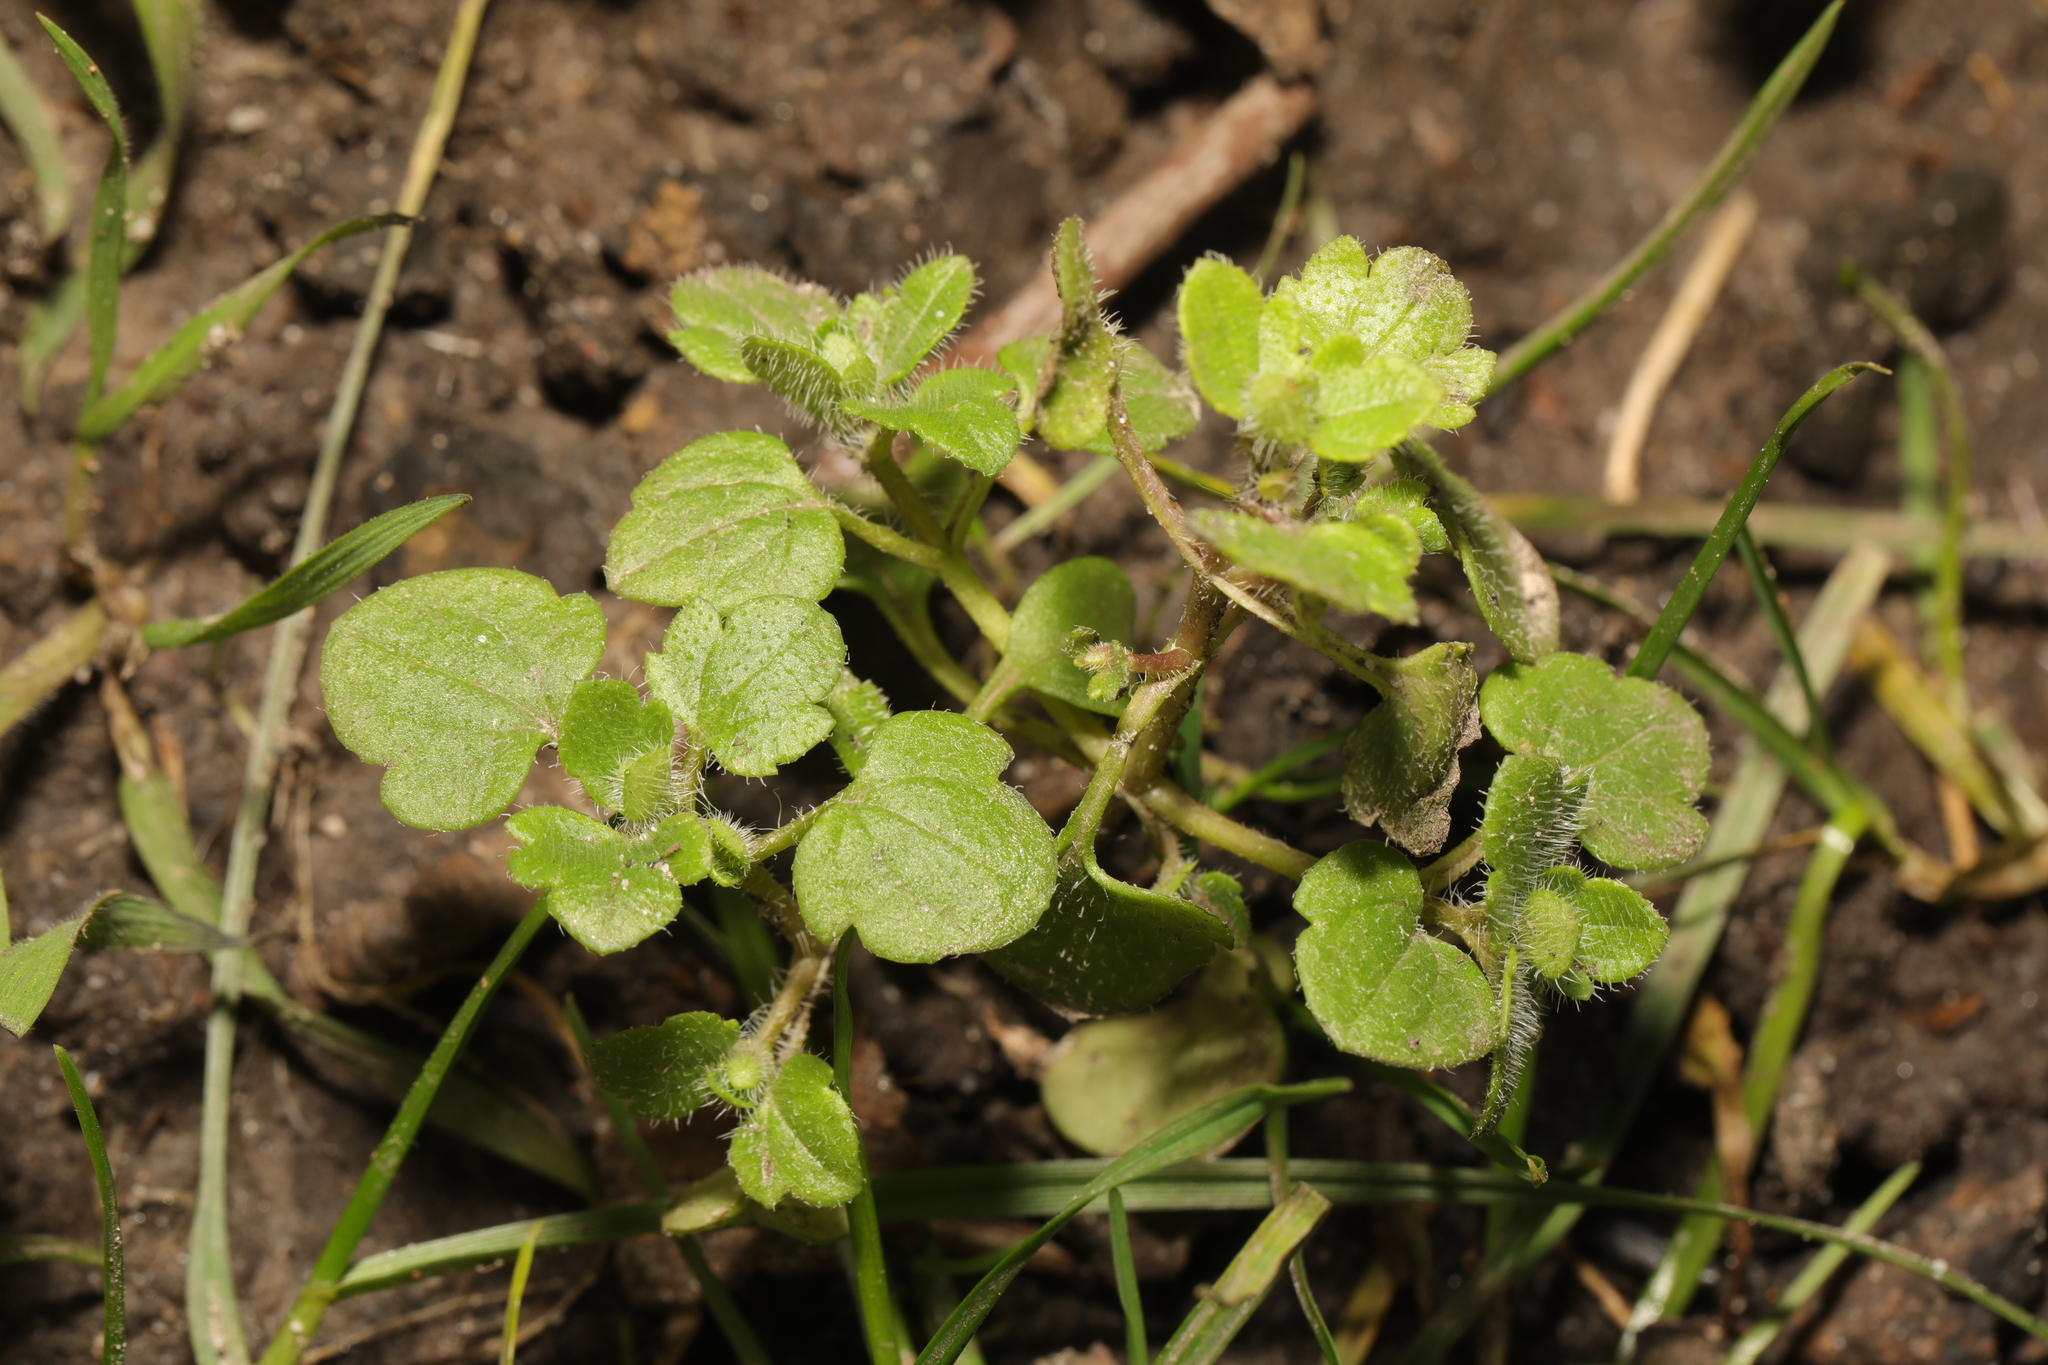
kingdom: Plantae
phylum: Tracheophyta
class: Magnoliopsida
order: Lamiales
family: Plantaginaceae
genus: Veronica
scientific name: Veronica sublobata
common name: False ivy-leaved speedwell
